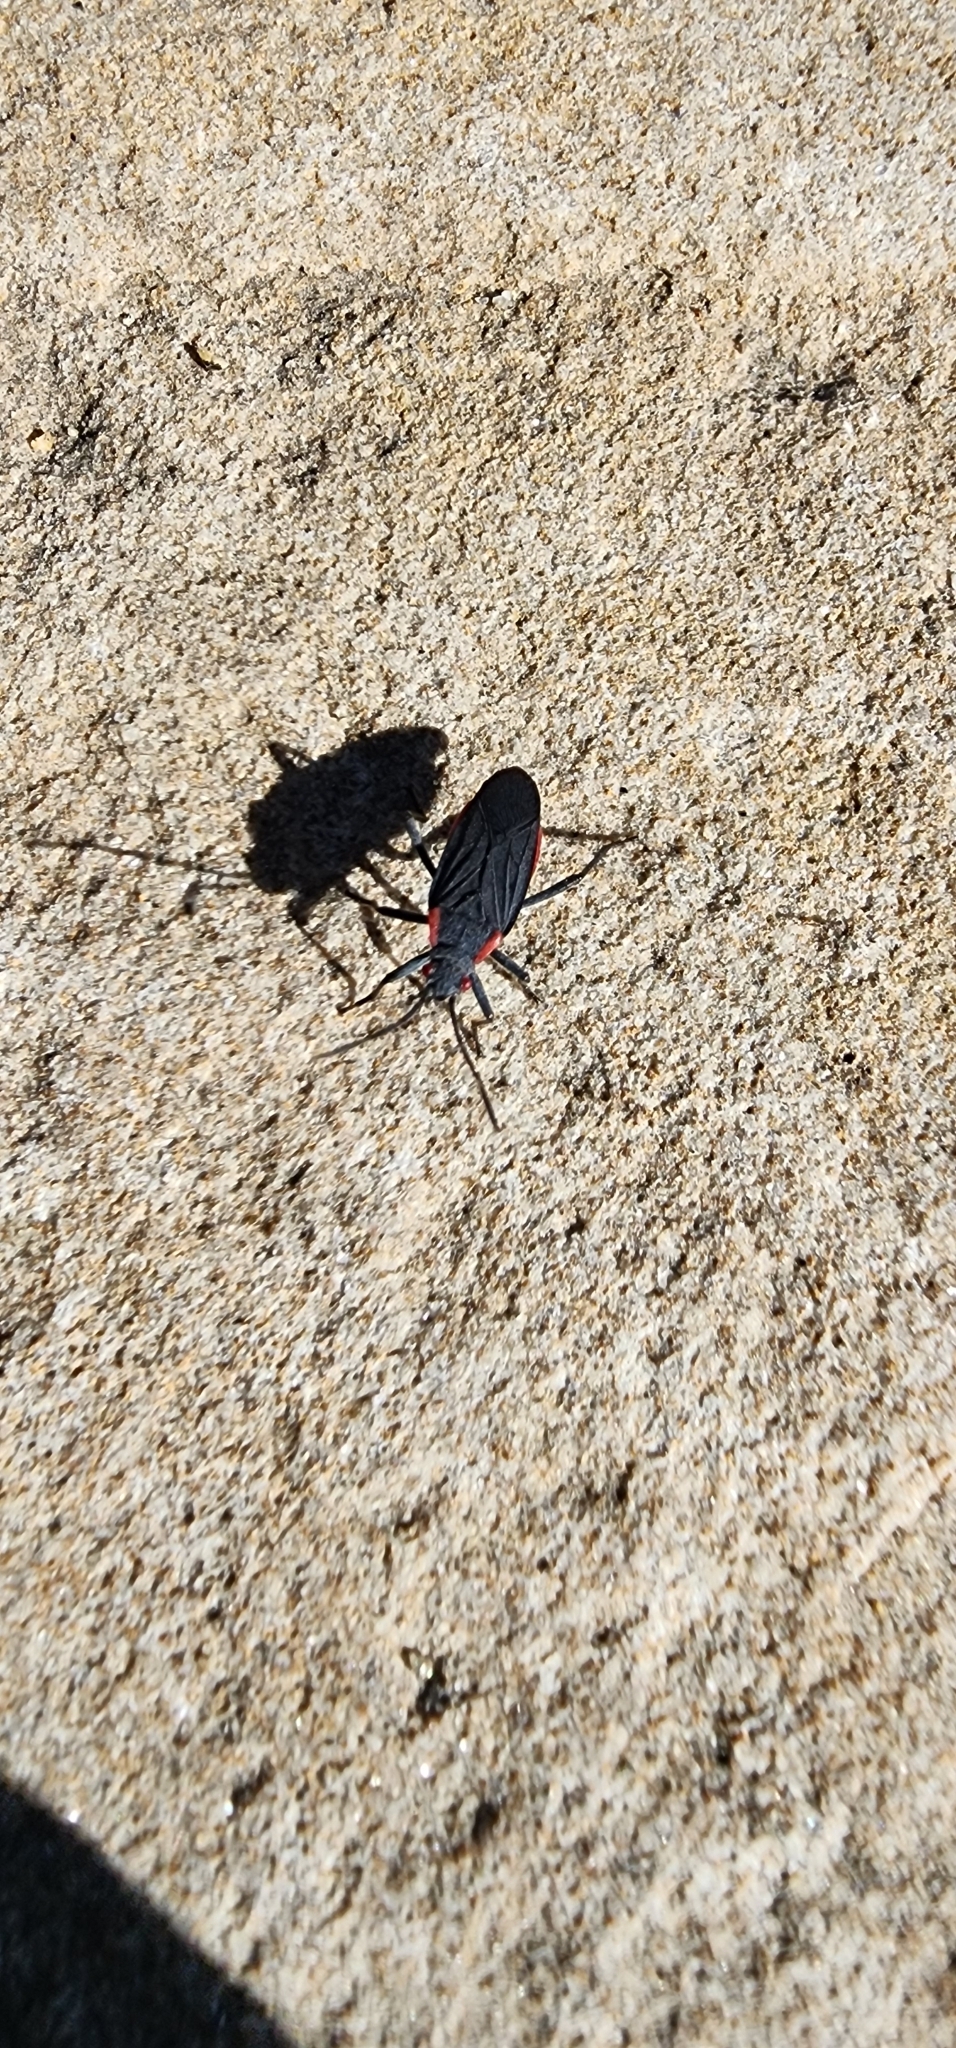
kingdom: Animalia
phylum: Arthropoda
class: Insecta
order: Hemiptera
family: Rhopalidae
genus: Jadera
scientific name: Jadera haematoloma
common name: Red-shouldered bug
